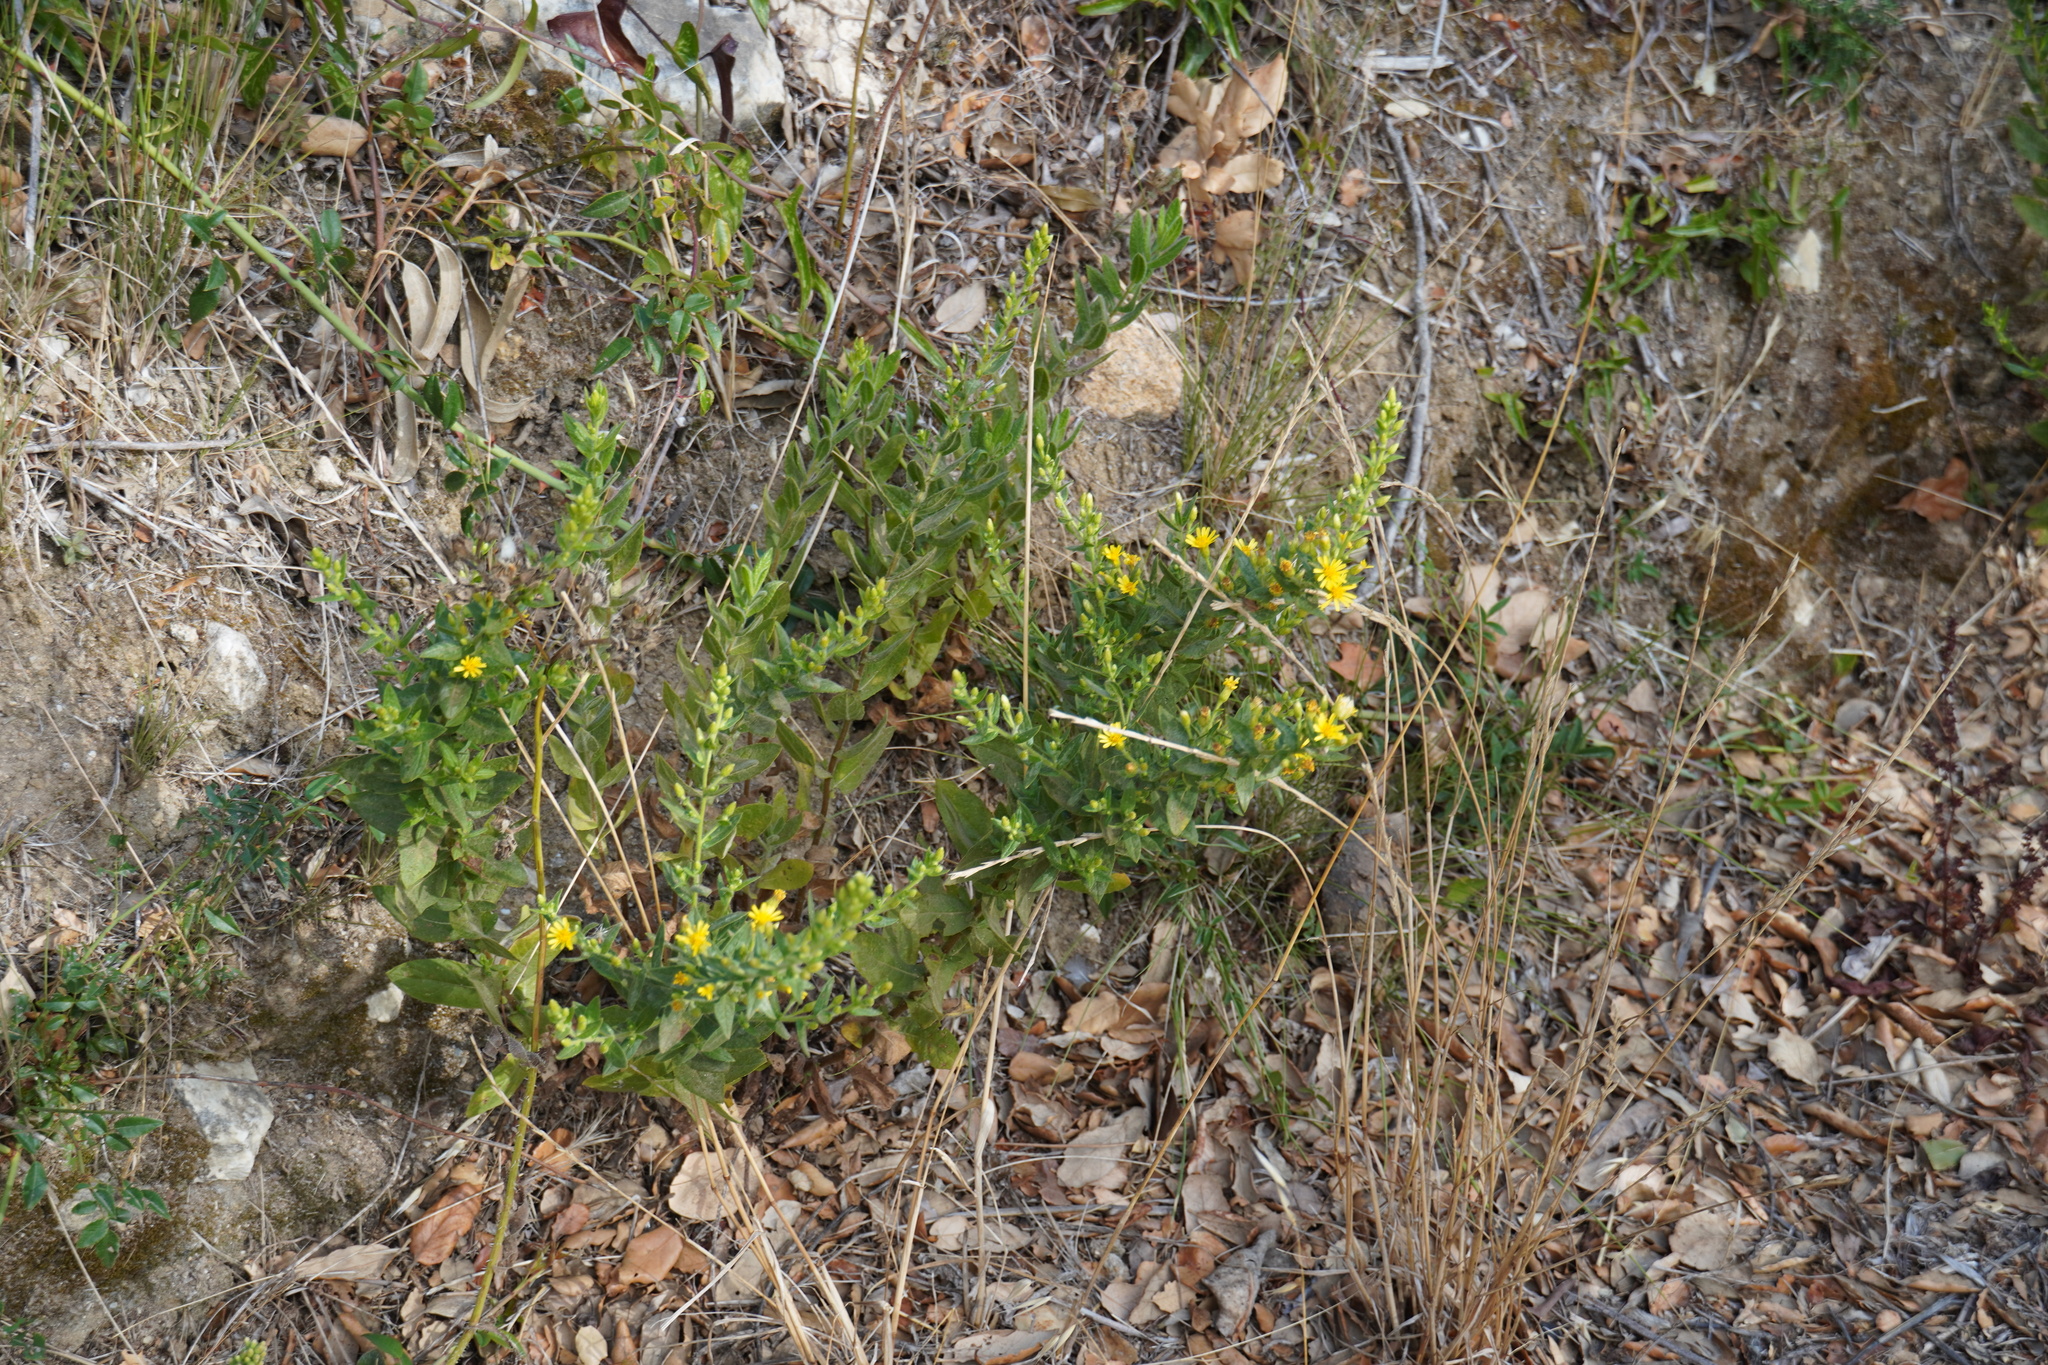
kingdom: Plantae
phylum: Tracheophyta
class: Magnoliopsida
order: Asterales
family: Asteraceae
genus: Dittrichia
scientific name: Dittrichia viscosa
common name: Woody fleabane
